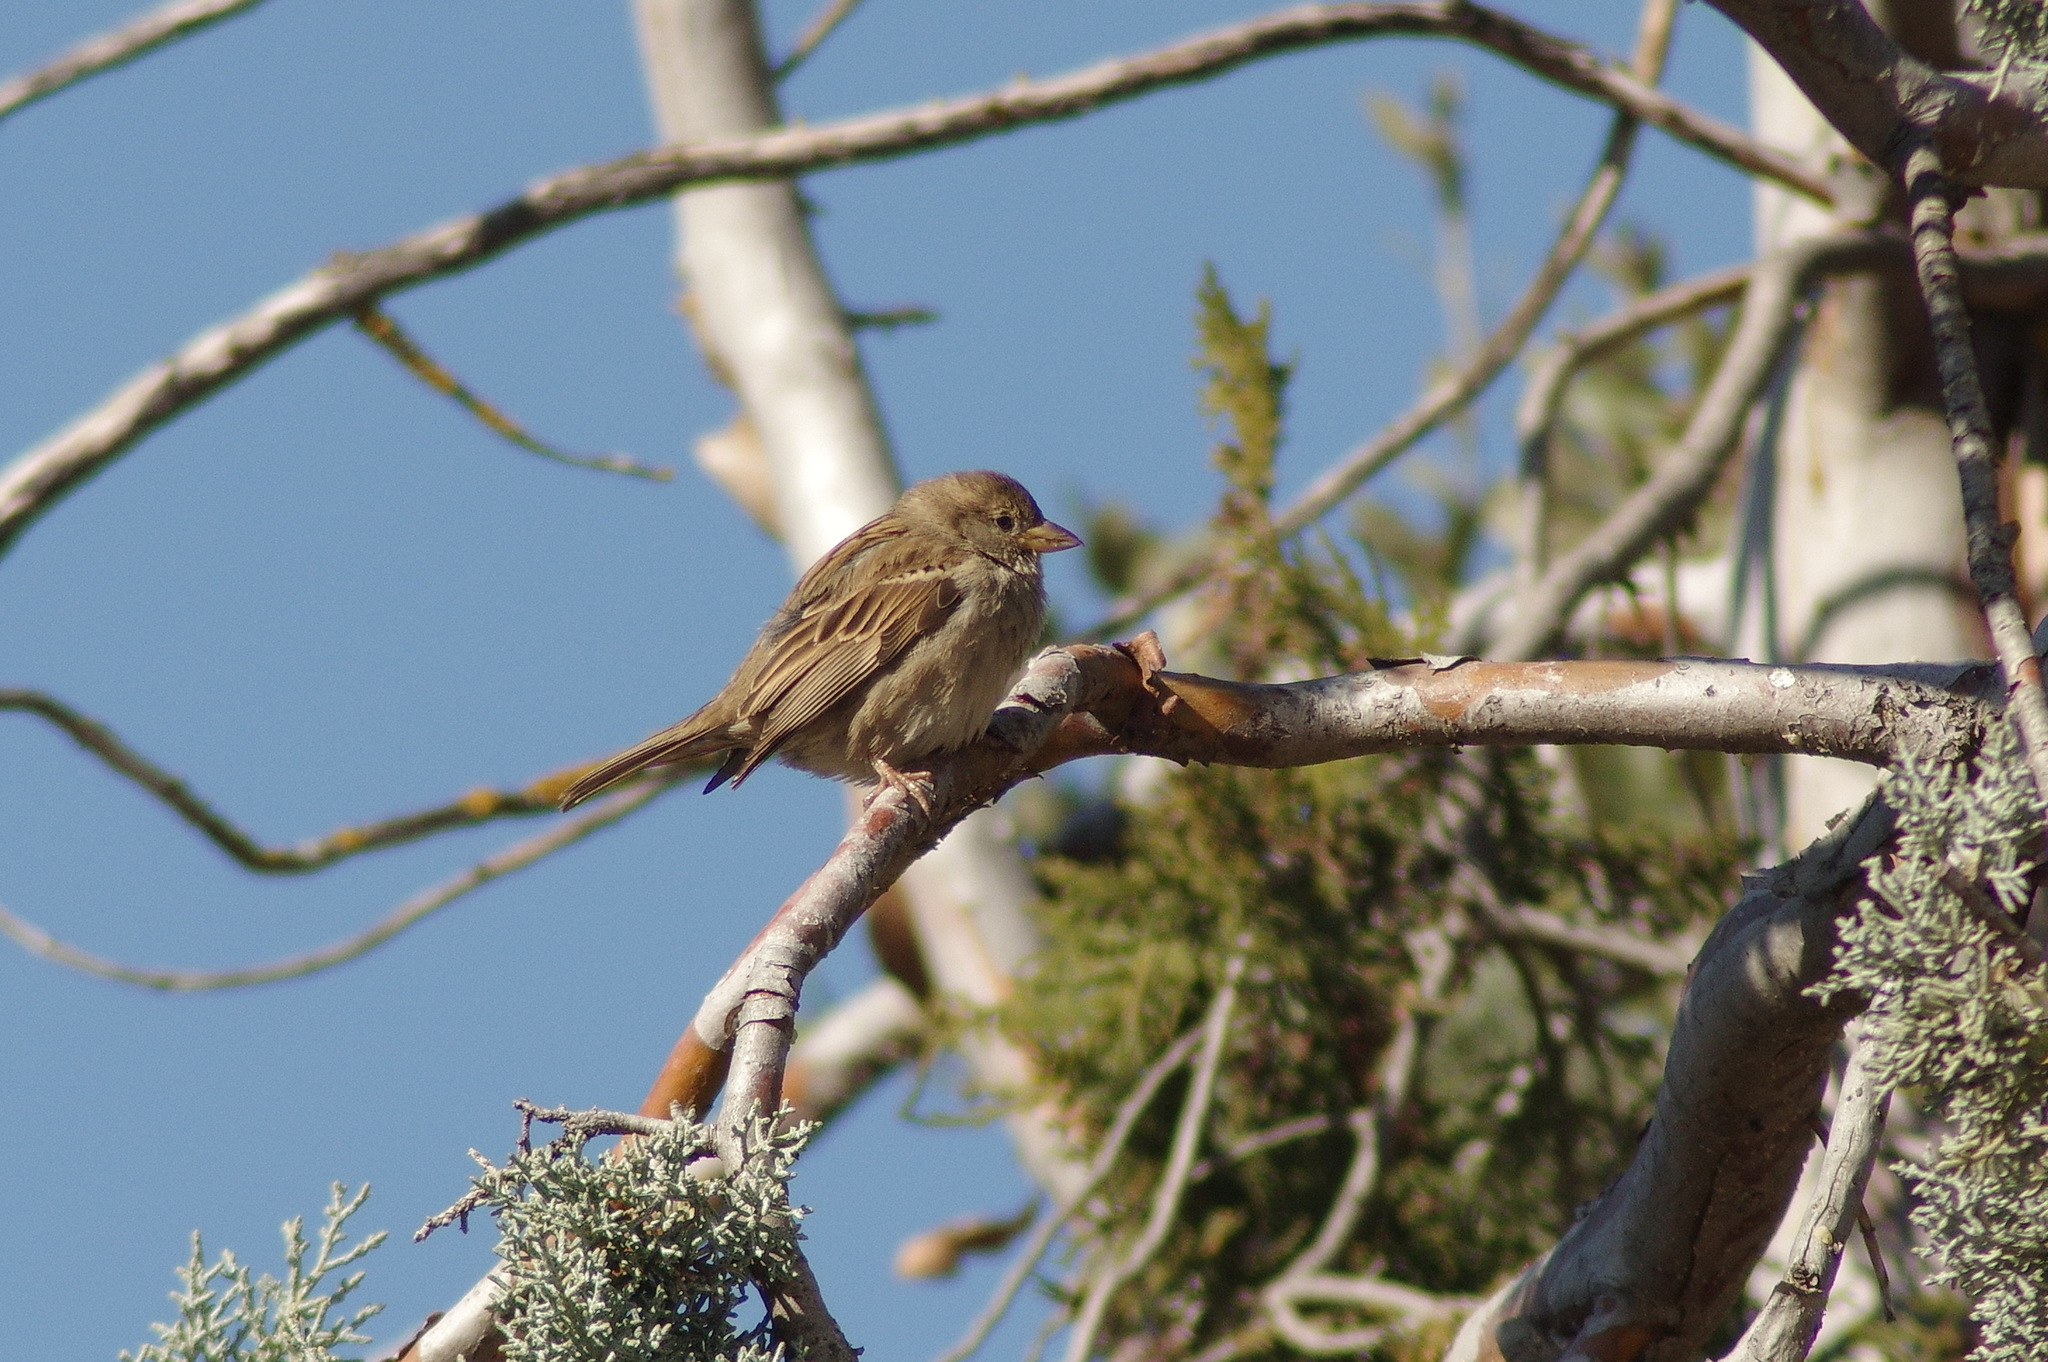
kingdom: Animalia
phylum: Chordata
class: Aves
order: Passeriformes
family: Passeridae
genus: Passer
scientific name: Passer domesticus
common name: House sparrow
